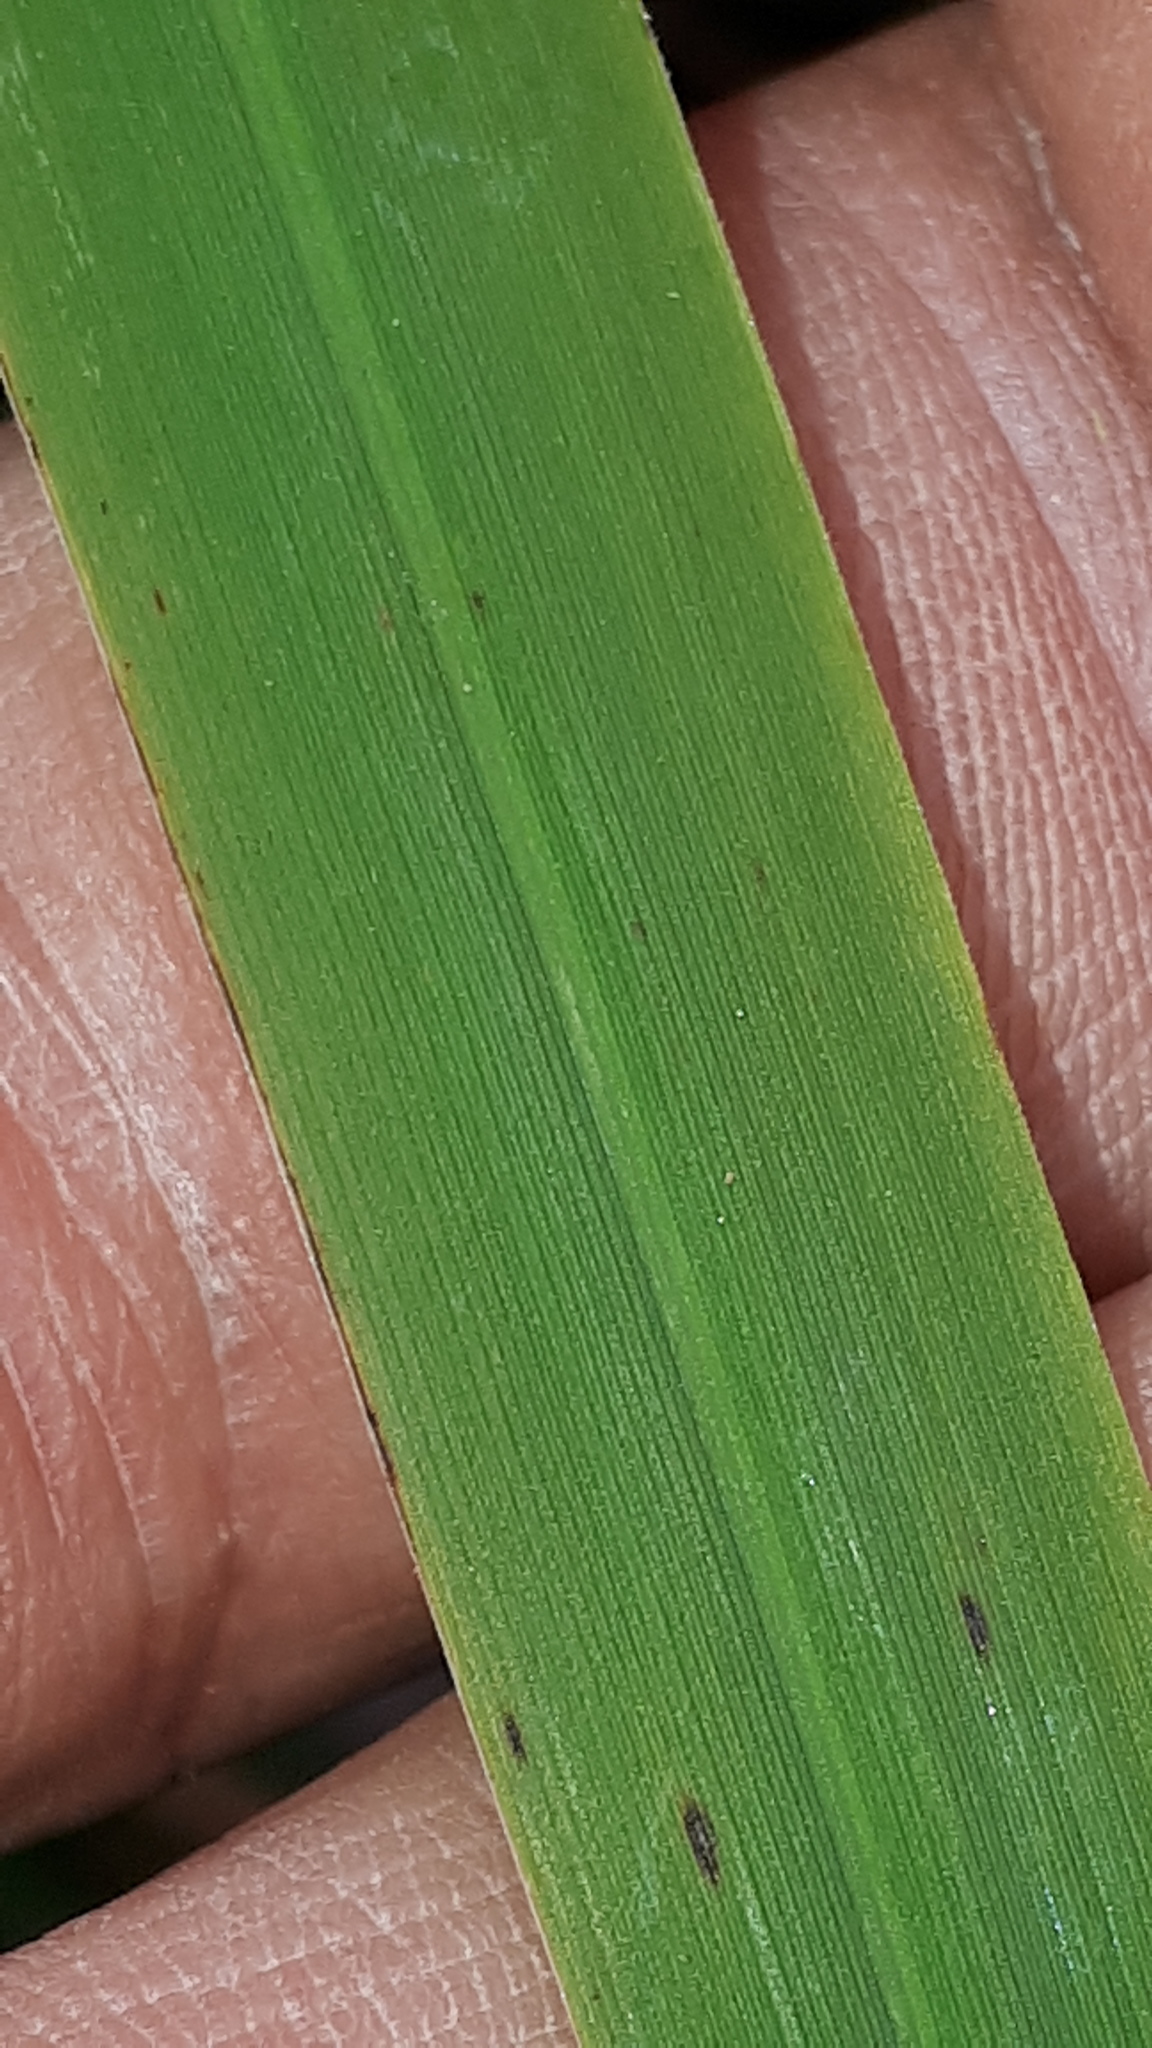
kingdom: Plantae
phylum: Tracheophyta
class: Liliopsida
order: Poales
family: Poaceae
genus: Molinia
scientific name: Molinia caerulea
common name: Purple moor-grass
